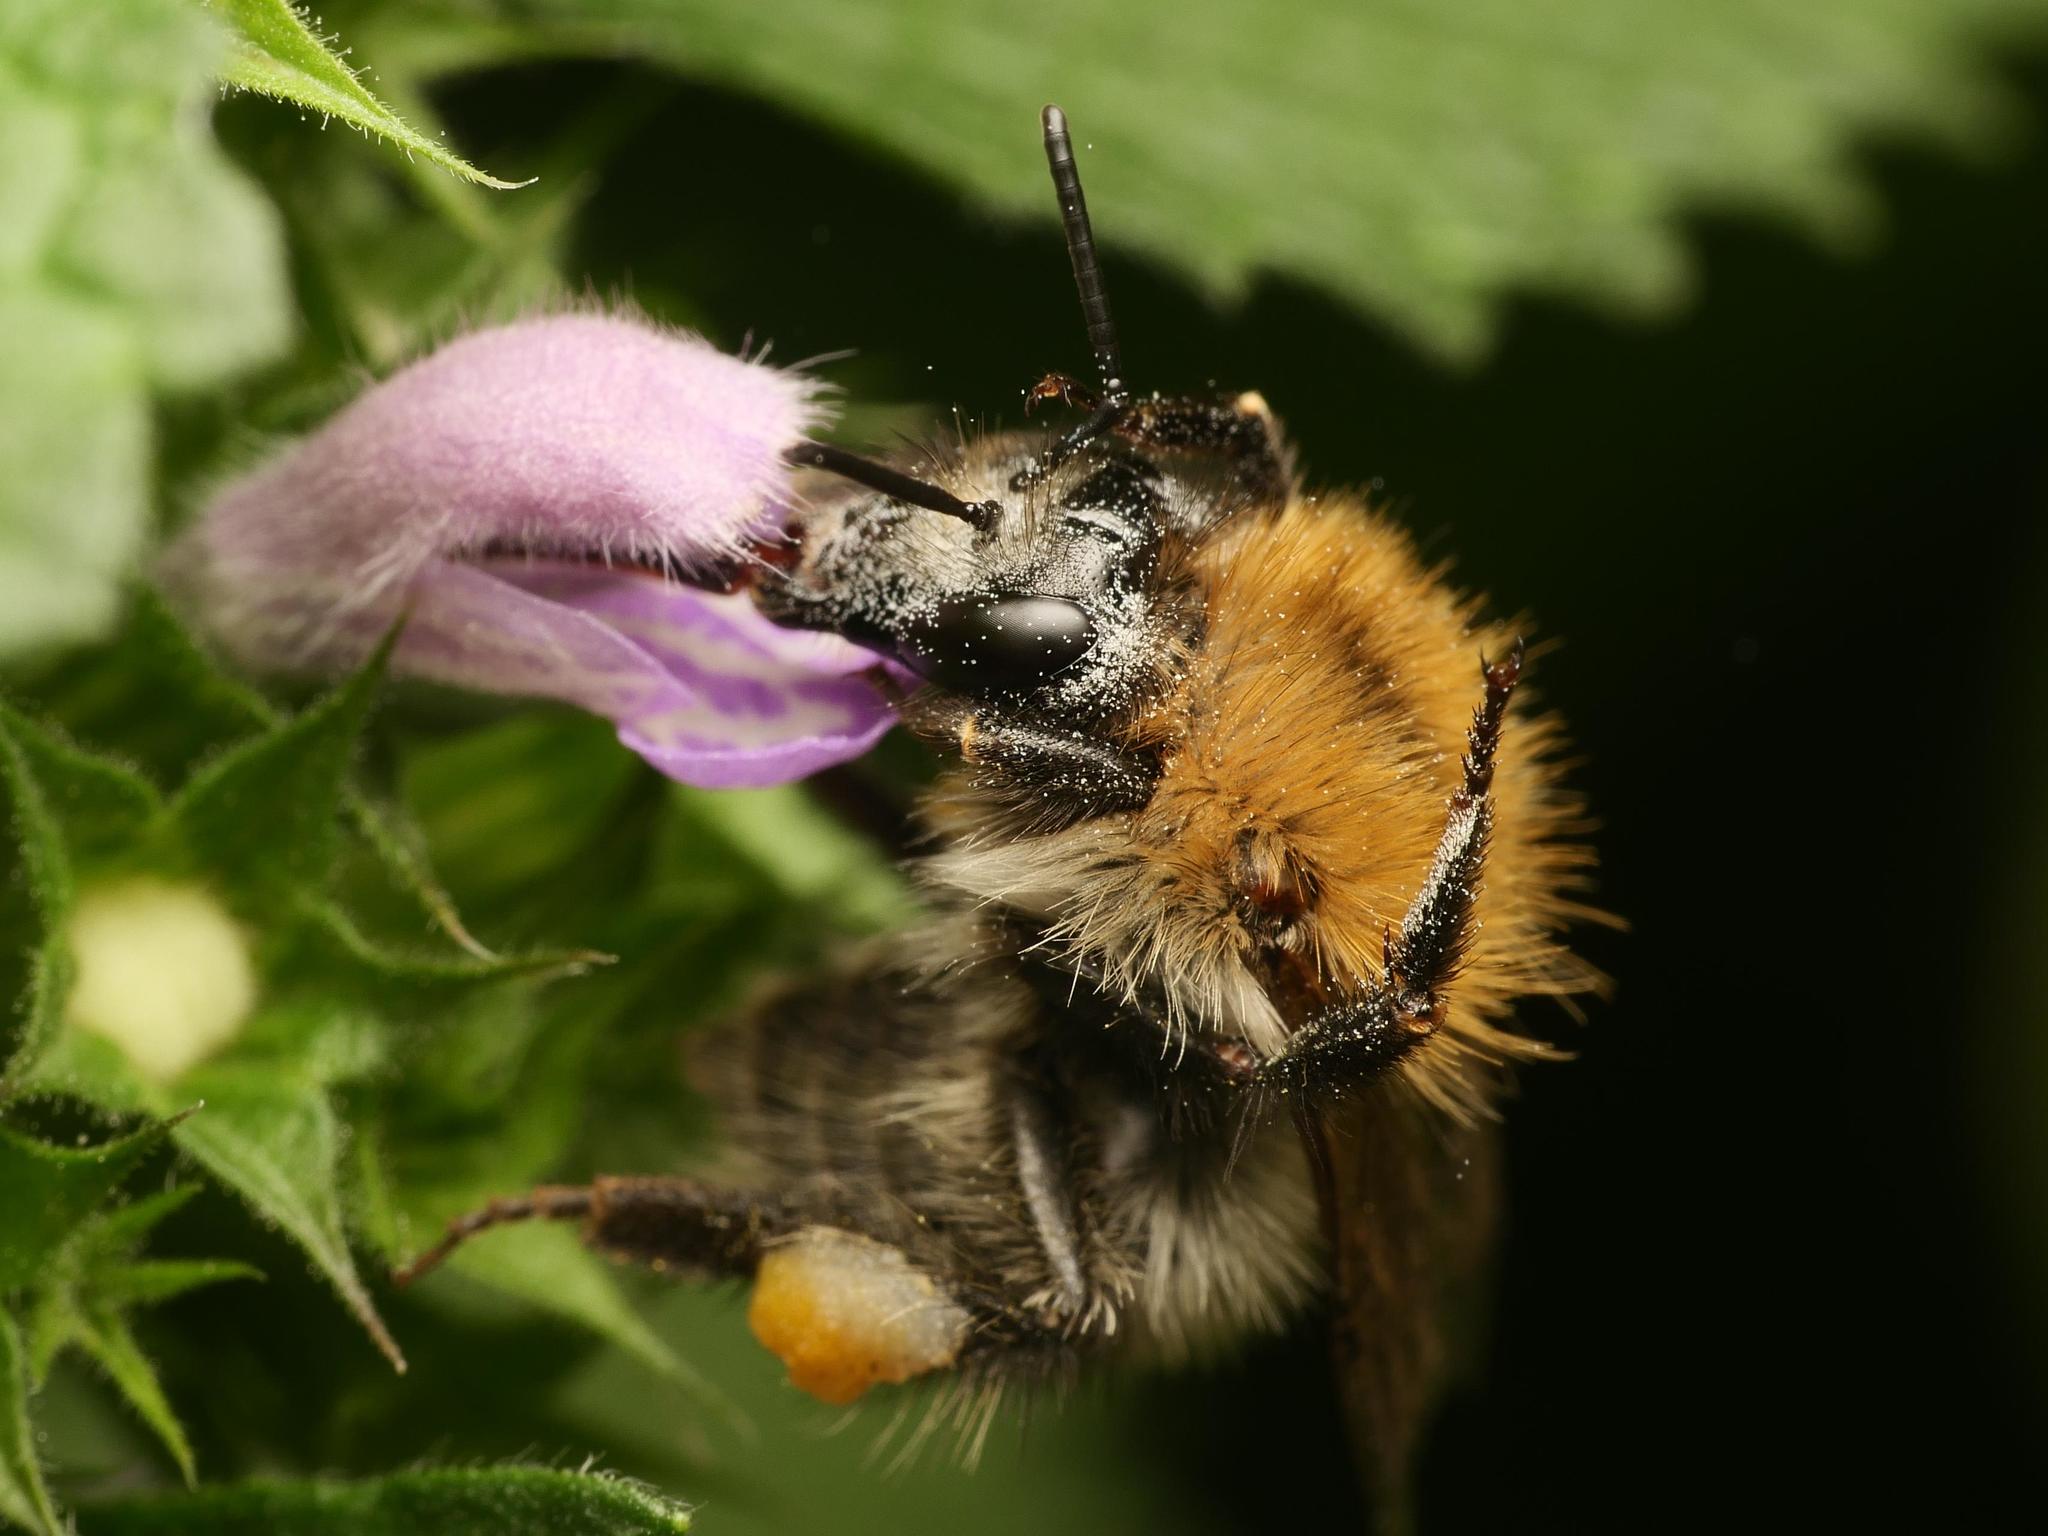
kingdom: Animalia
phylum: Arthropoda
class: Insecta
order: Hymenoptera
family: Apidae
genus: Bombus
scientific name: Bombus pascuorum
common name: Common carder bee
